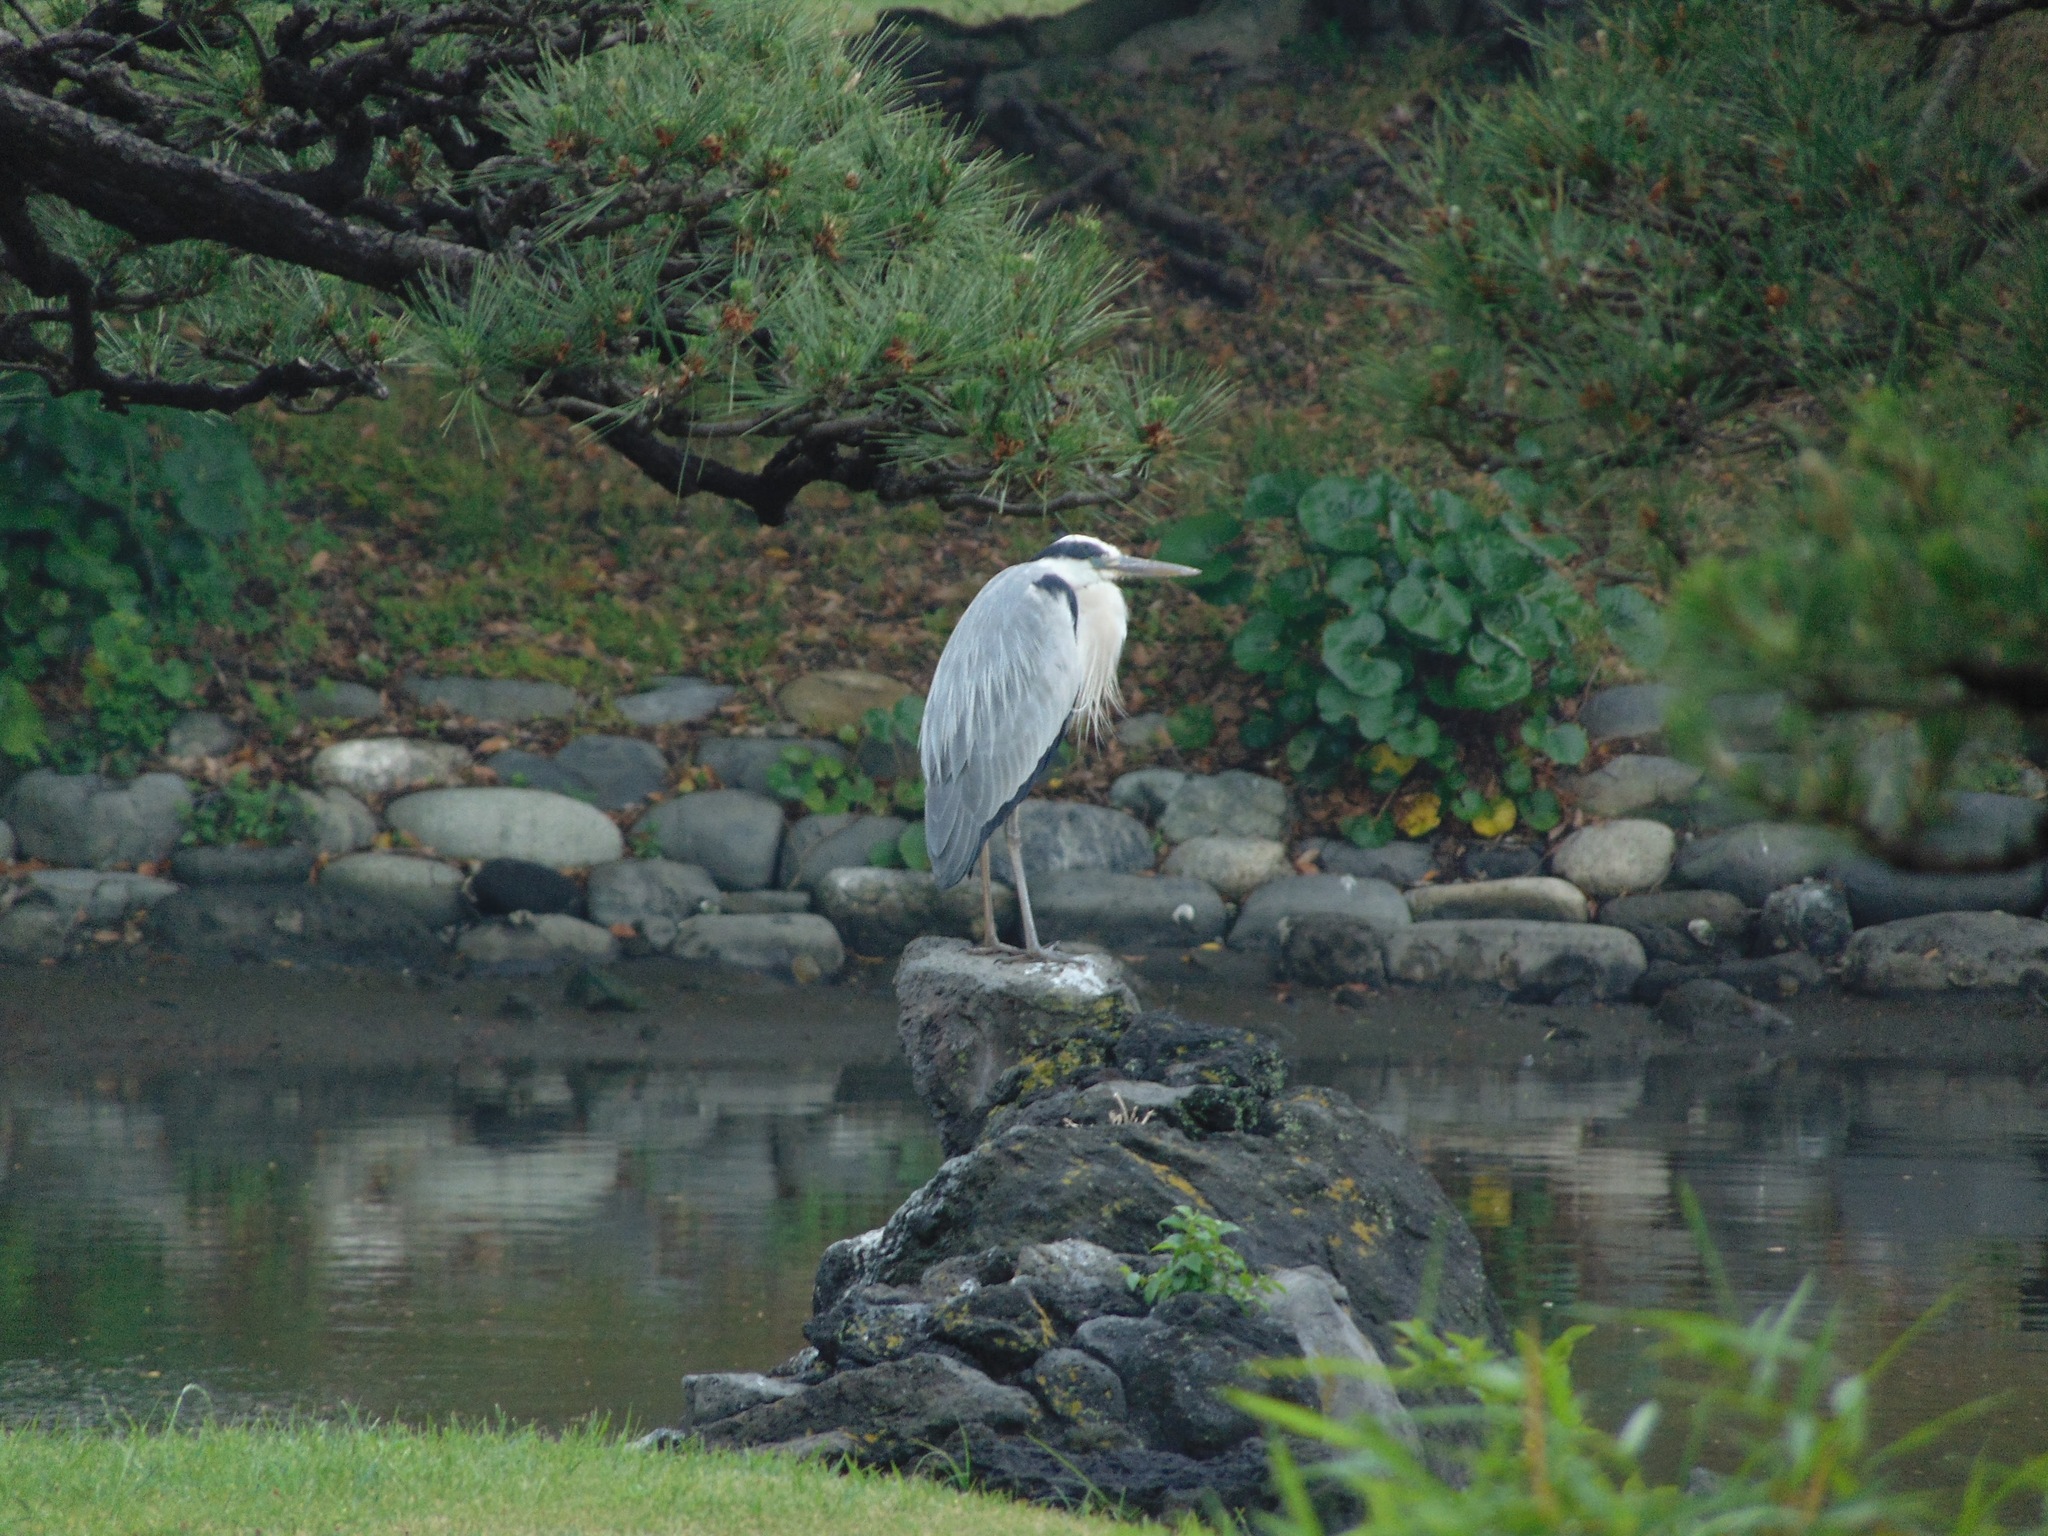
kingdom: Animalia
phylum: Chordata
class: Aves
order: Pelecaniformes
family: Ardeidae
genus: Ardea
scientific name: Ardea cinerea
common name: Grey heron
